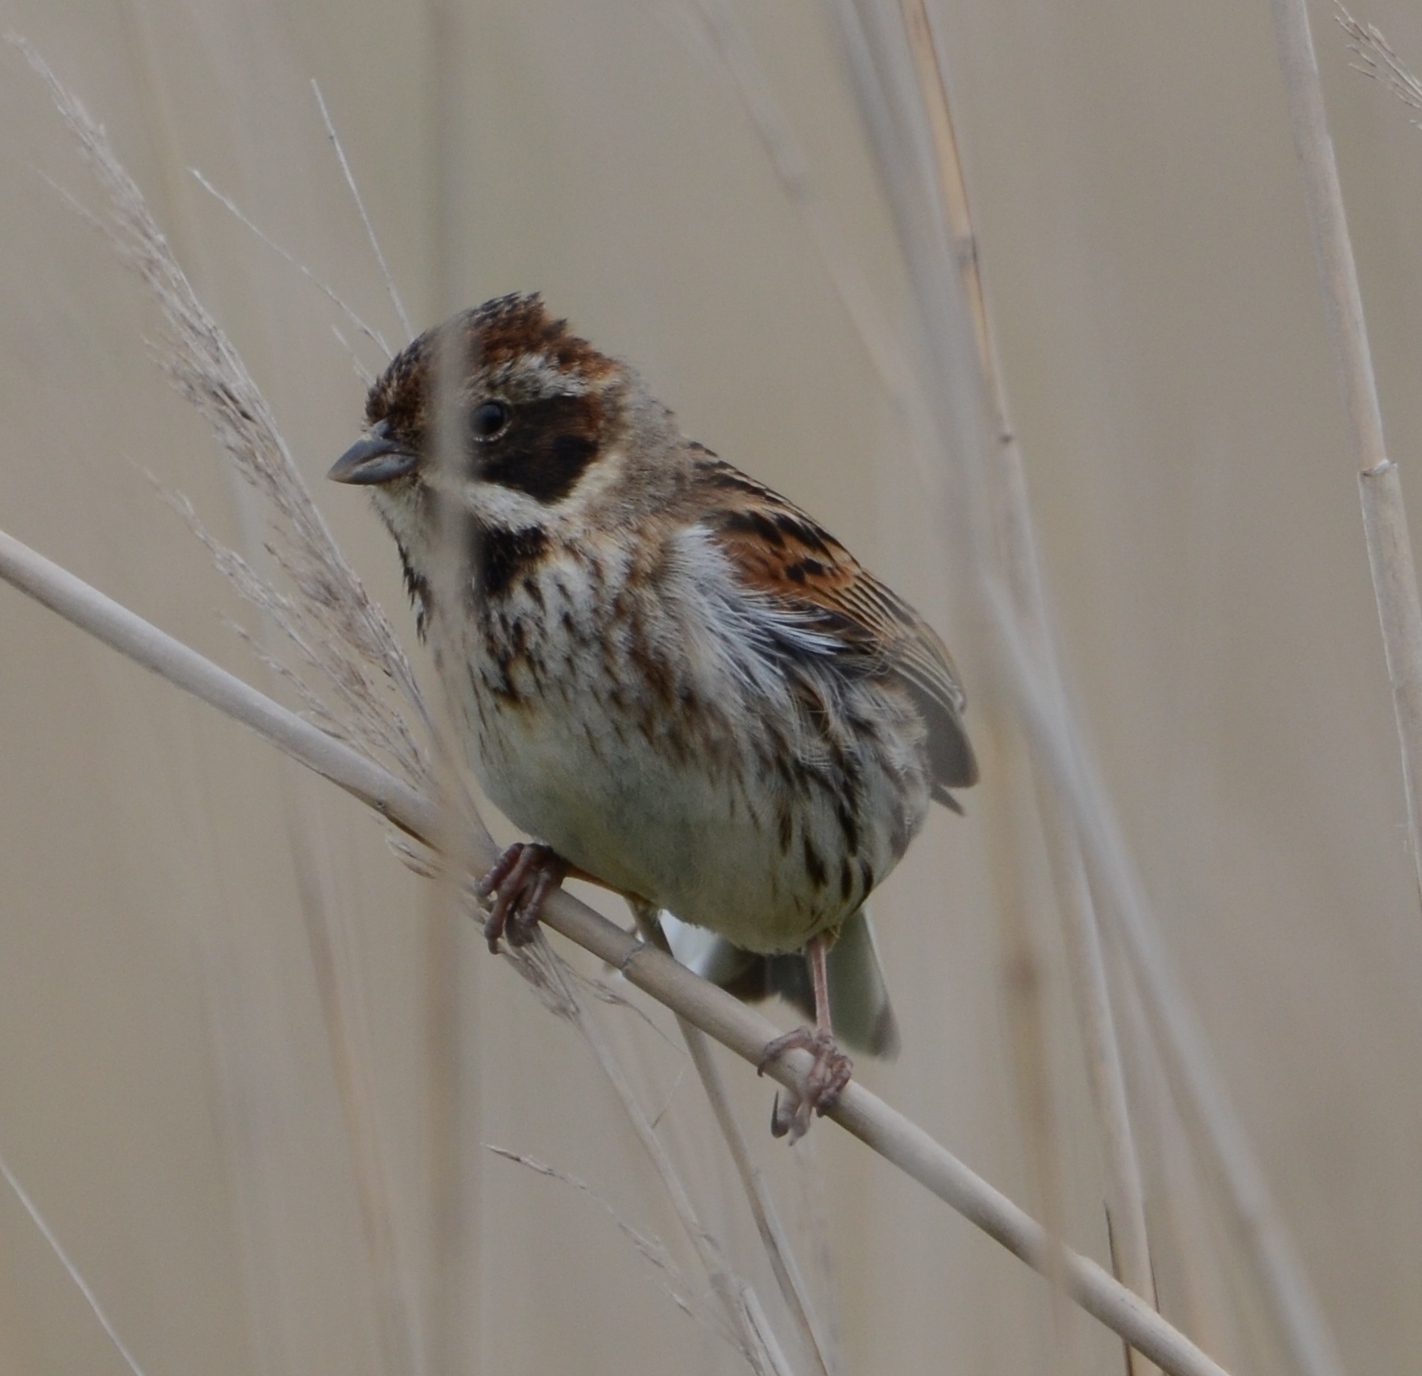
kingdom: Animalia
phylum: Chordata
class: Aves
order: Passeriformes
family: Emberizidae
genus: Emberiza
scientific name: Emberiza schoeniclus
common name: Reed bunting
